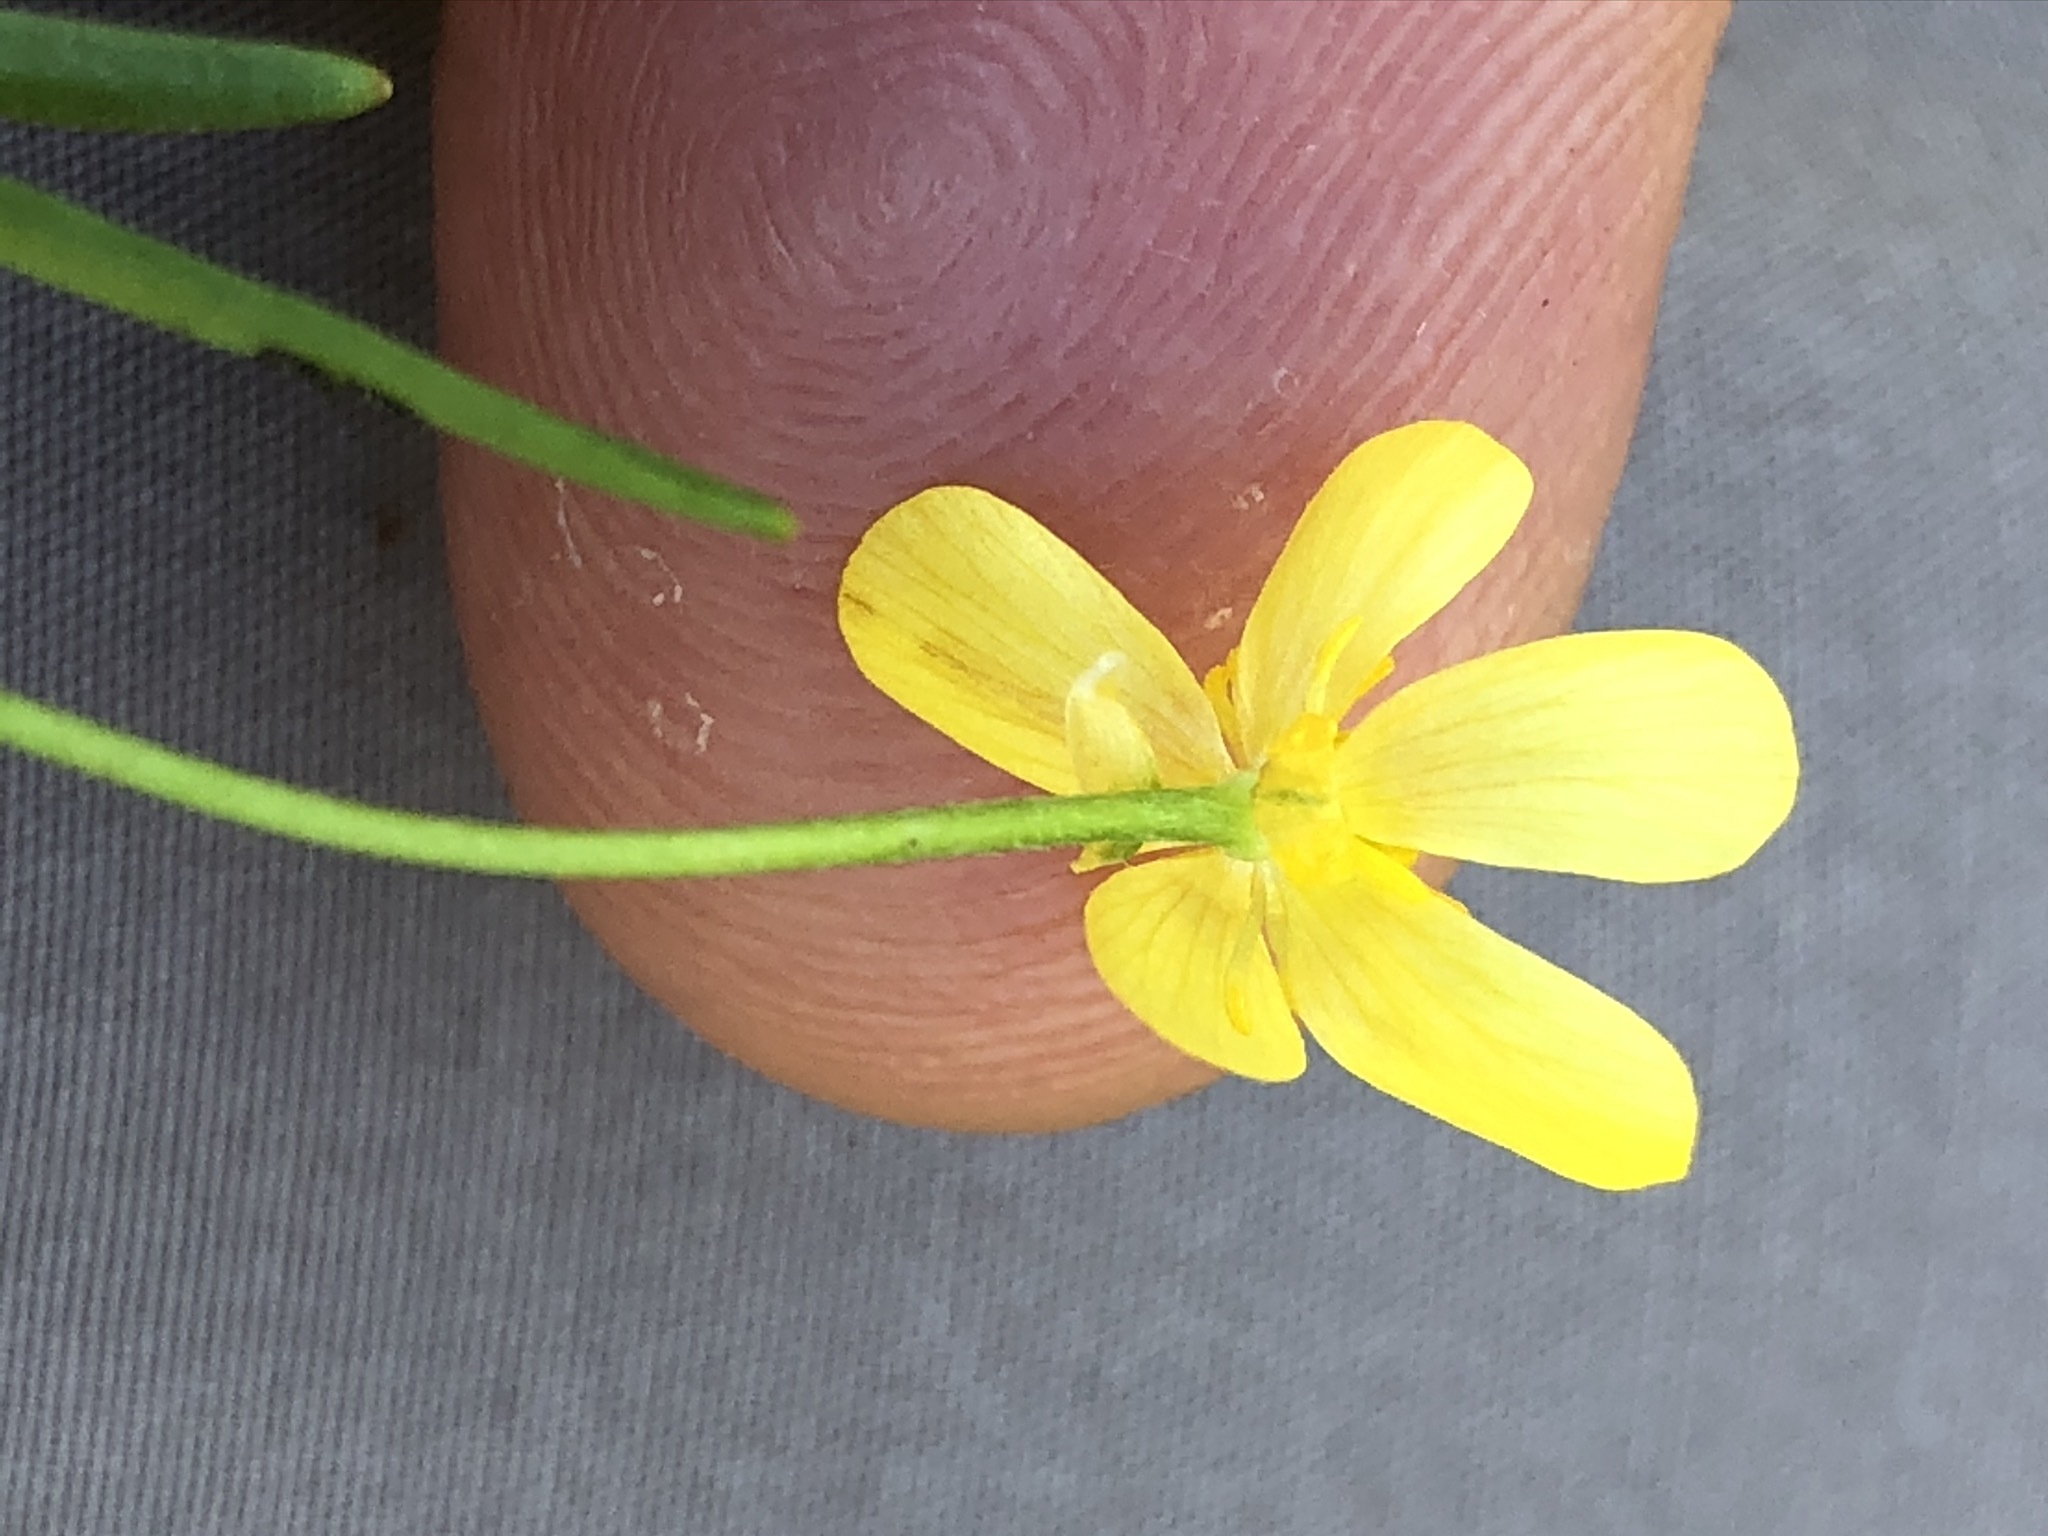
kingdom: Plantae
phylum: Tracheophyta
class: Magnoliopsida
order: Ranunculales
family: Ranunculaceae
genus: Ranunculus
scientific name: Ranunculus flammula
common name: Lesser spearwort
